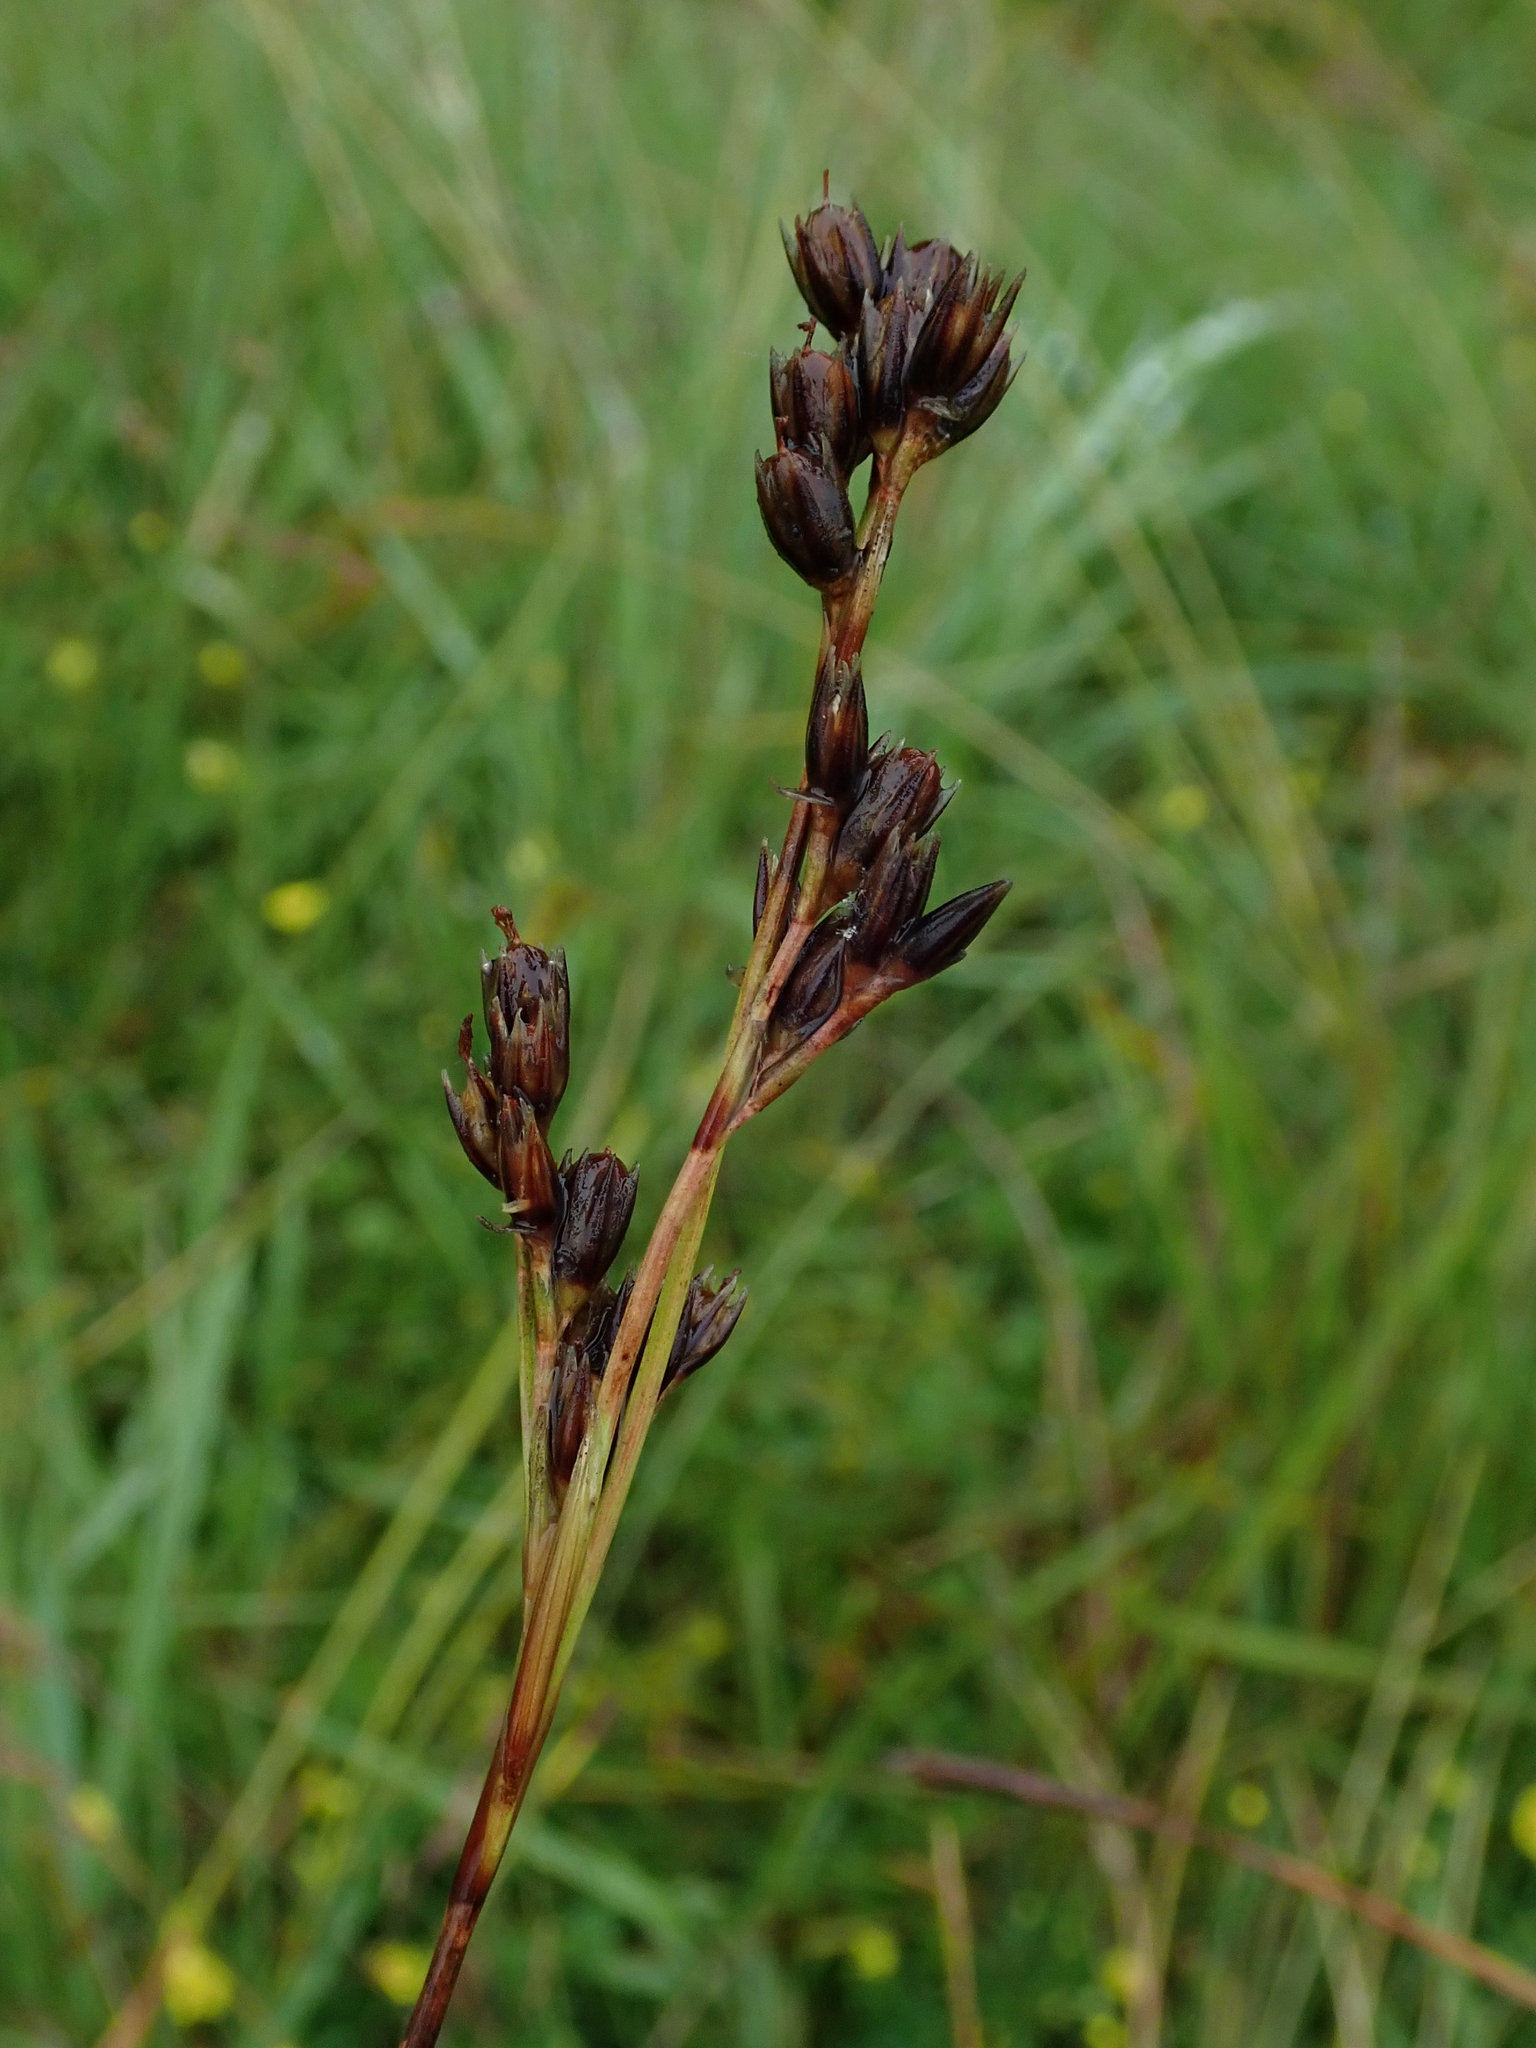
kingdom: Plantae
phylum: Tracheophyta
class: Liliopsida
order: Poales
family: Juncaceae
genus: Juncus
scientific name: Juncus squarrosus
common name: Heath rush
